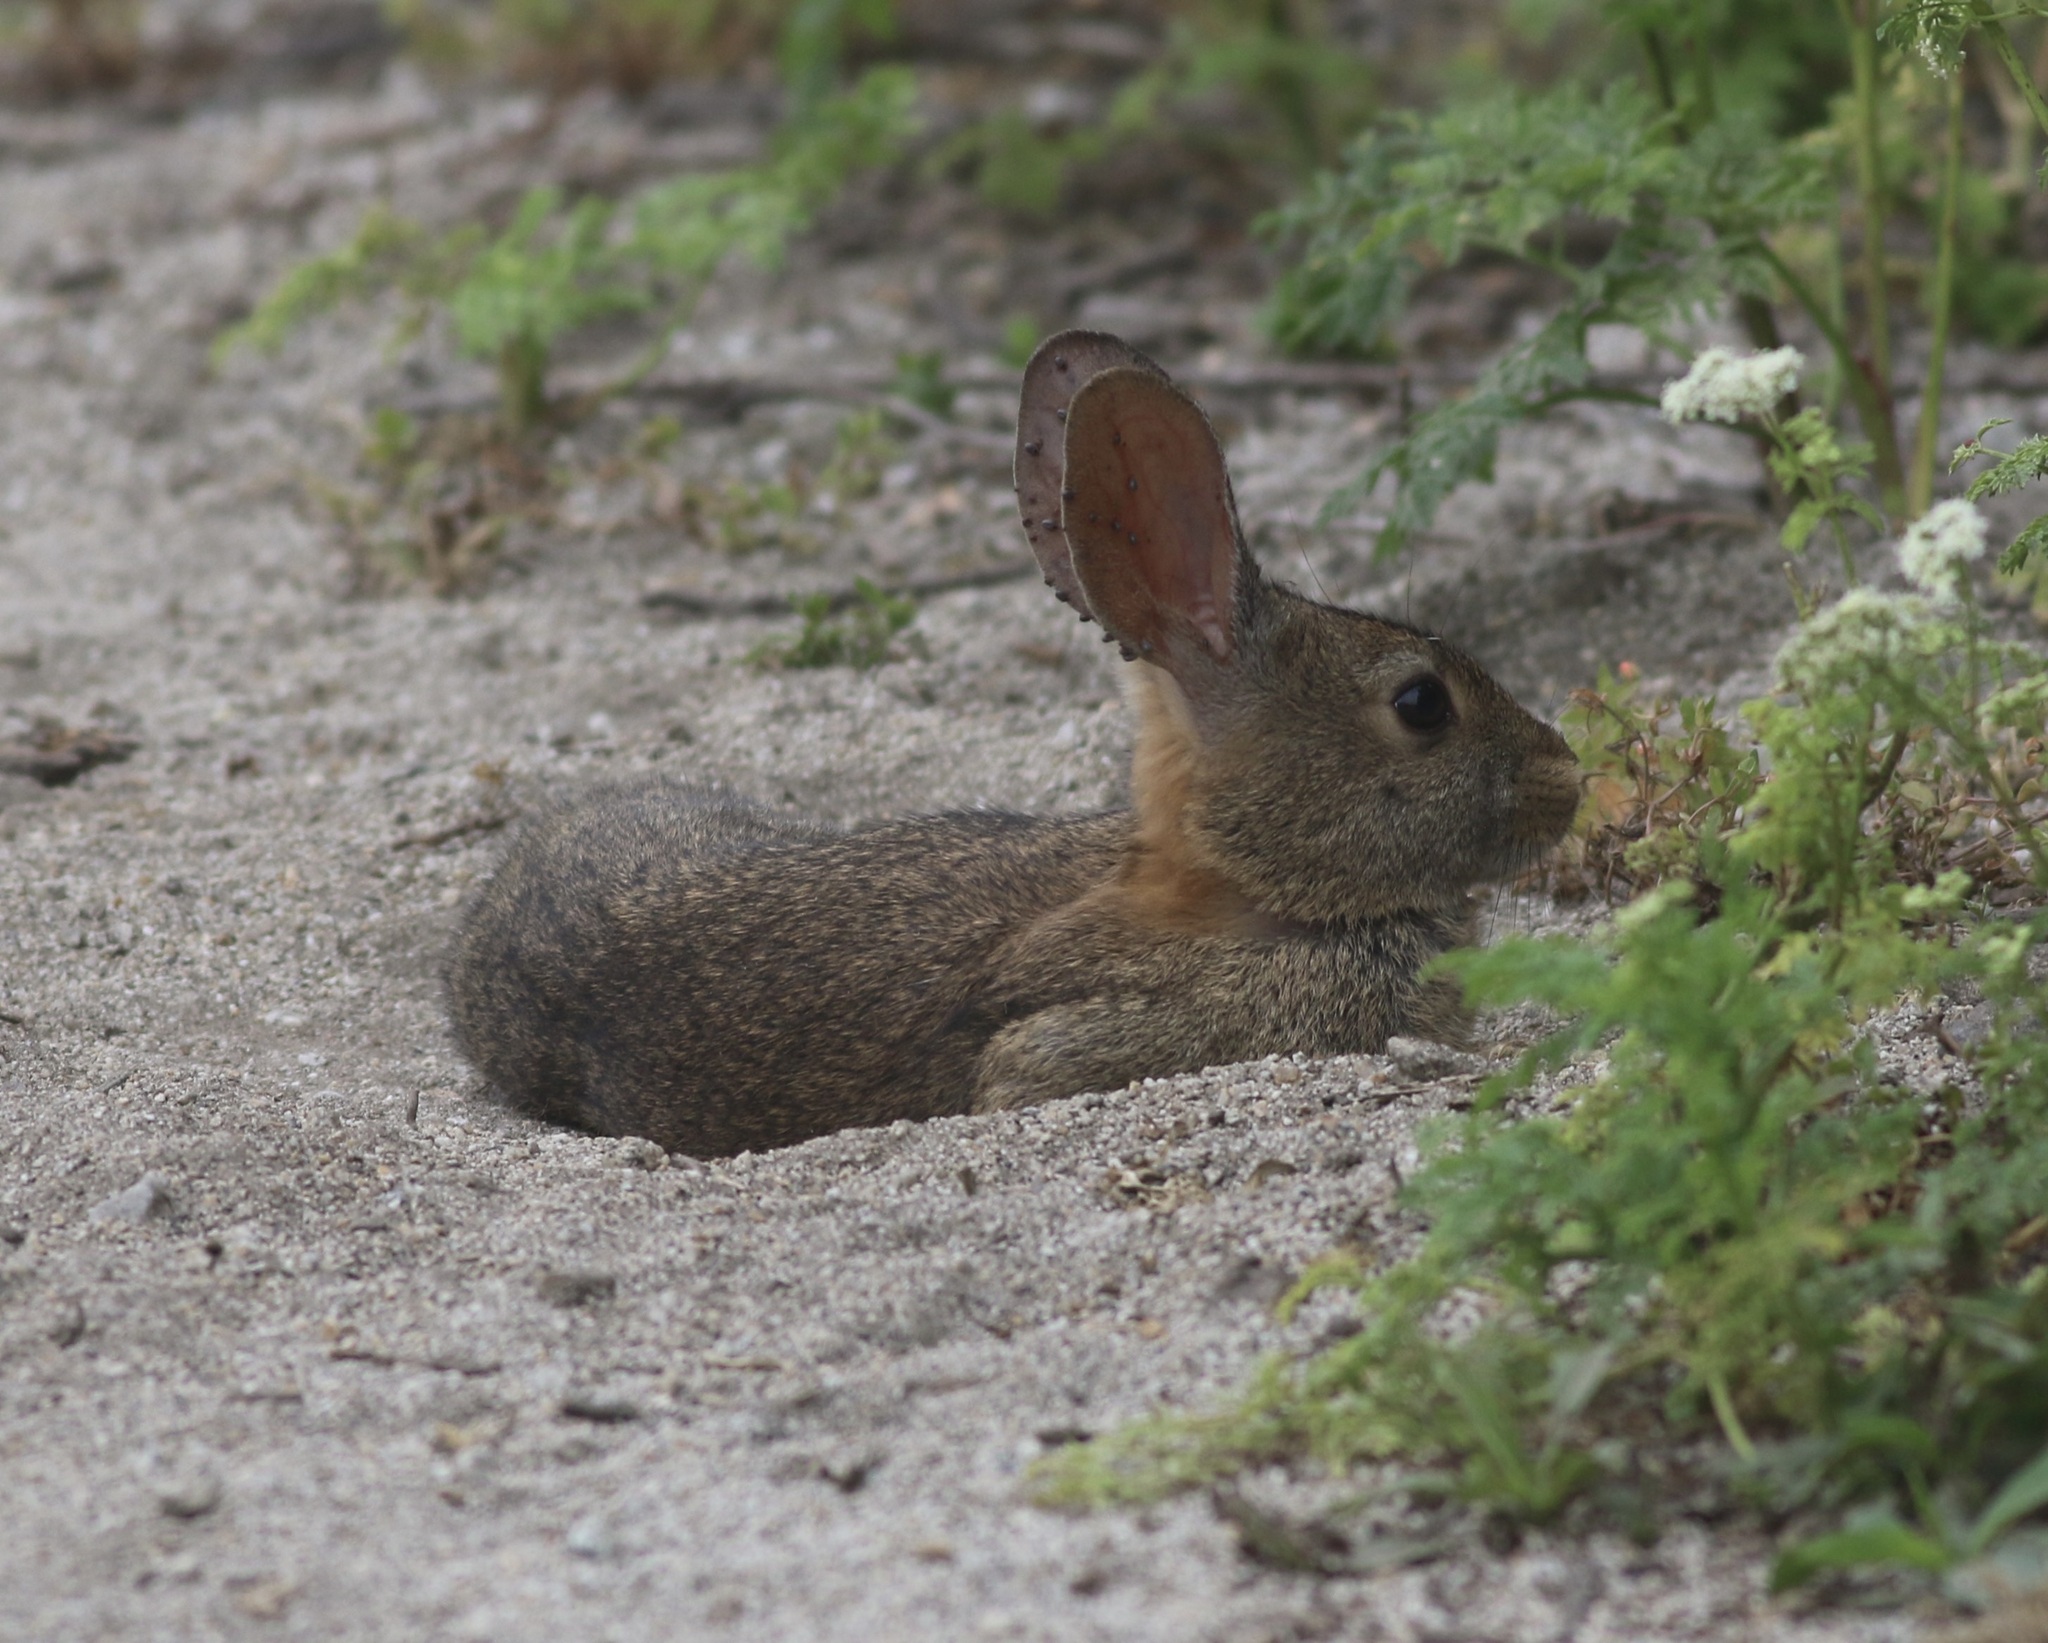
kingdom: Animalia
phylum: Chordata
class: Mammalia
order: Lagomorpha
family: Leporidae
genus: Sylvilagus
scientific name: Sylvilagus bachmani
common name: Brush rabbit
